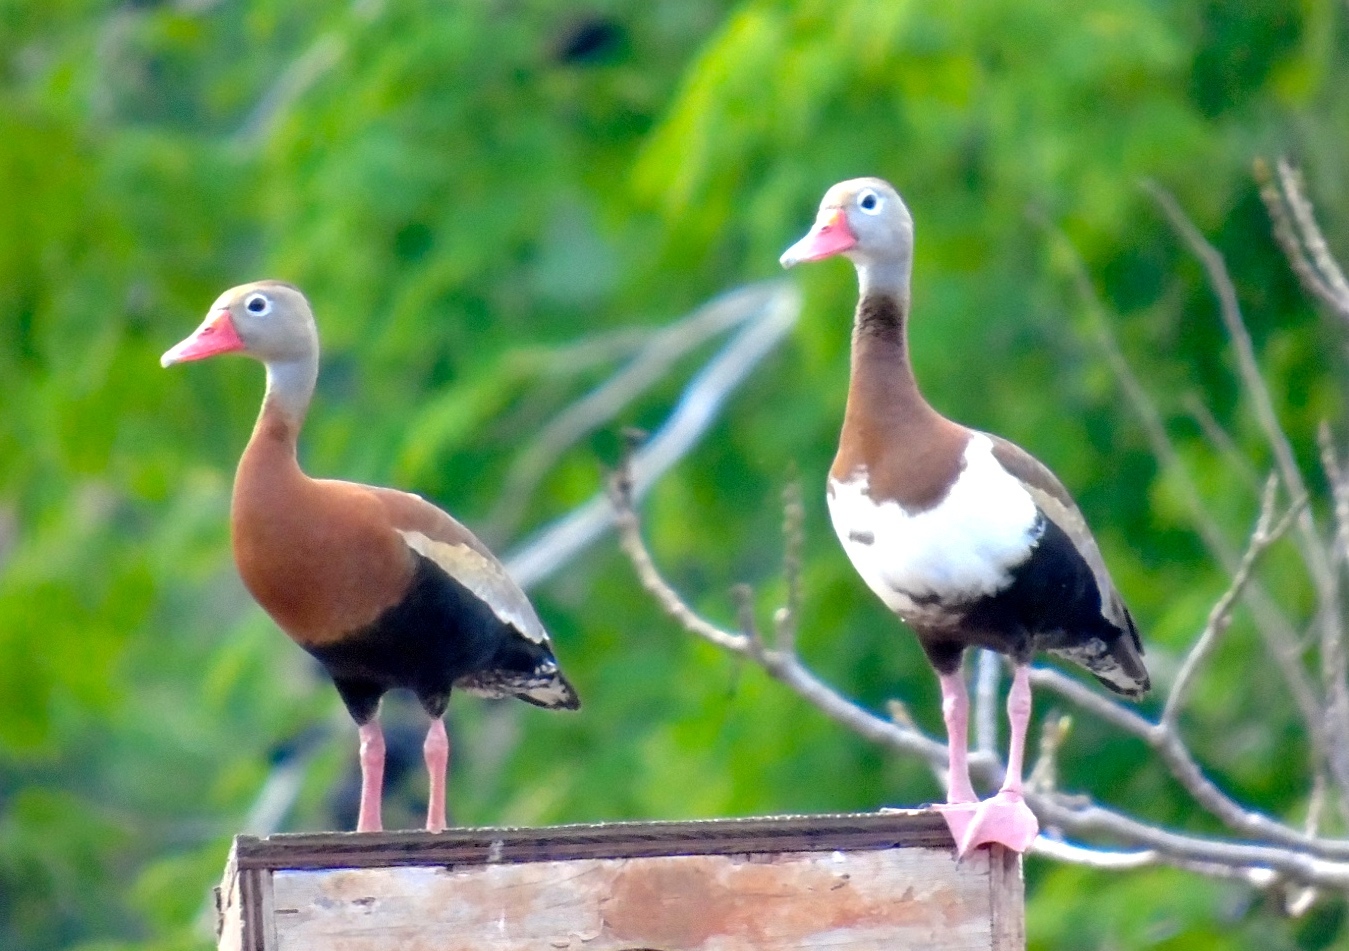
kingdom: Animalia
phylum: Chordata
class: Aves
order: Anseriformes
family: Anatidae
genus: Dendrocygna
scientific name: Dendrocygna autumnalis
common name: Black-bellied whistling duck
